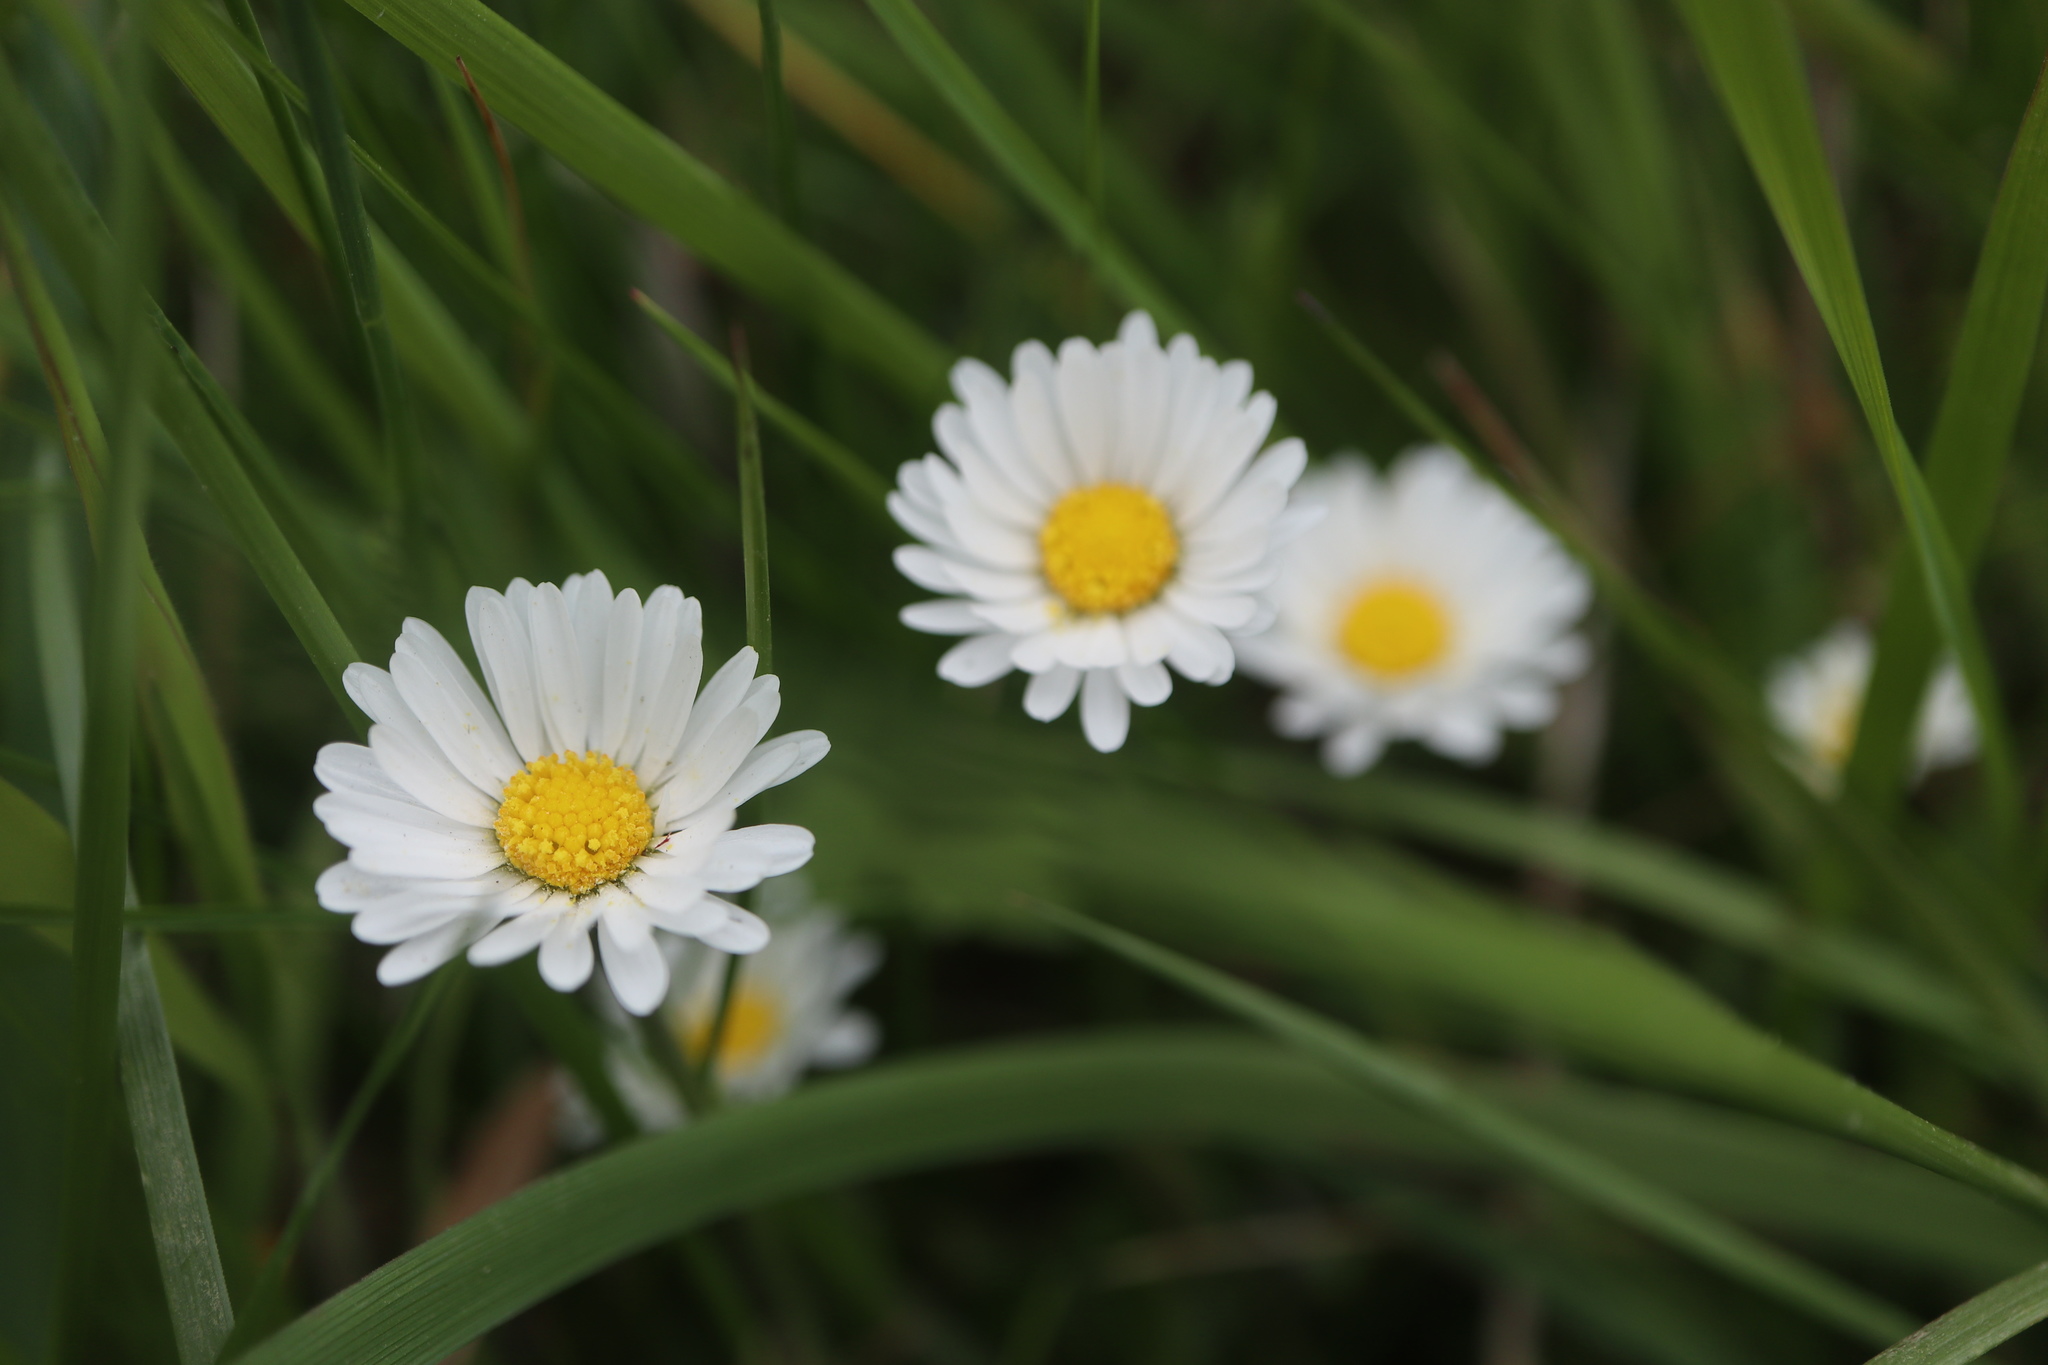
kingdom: Plantae
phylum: Tracheophyta
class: Magnoliopsida
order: Asterales
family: Asteraceae
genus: Bellis
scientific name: Bellis perennis
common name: Lawndaisy
